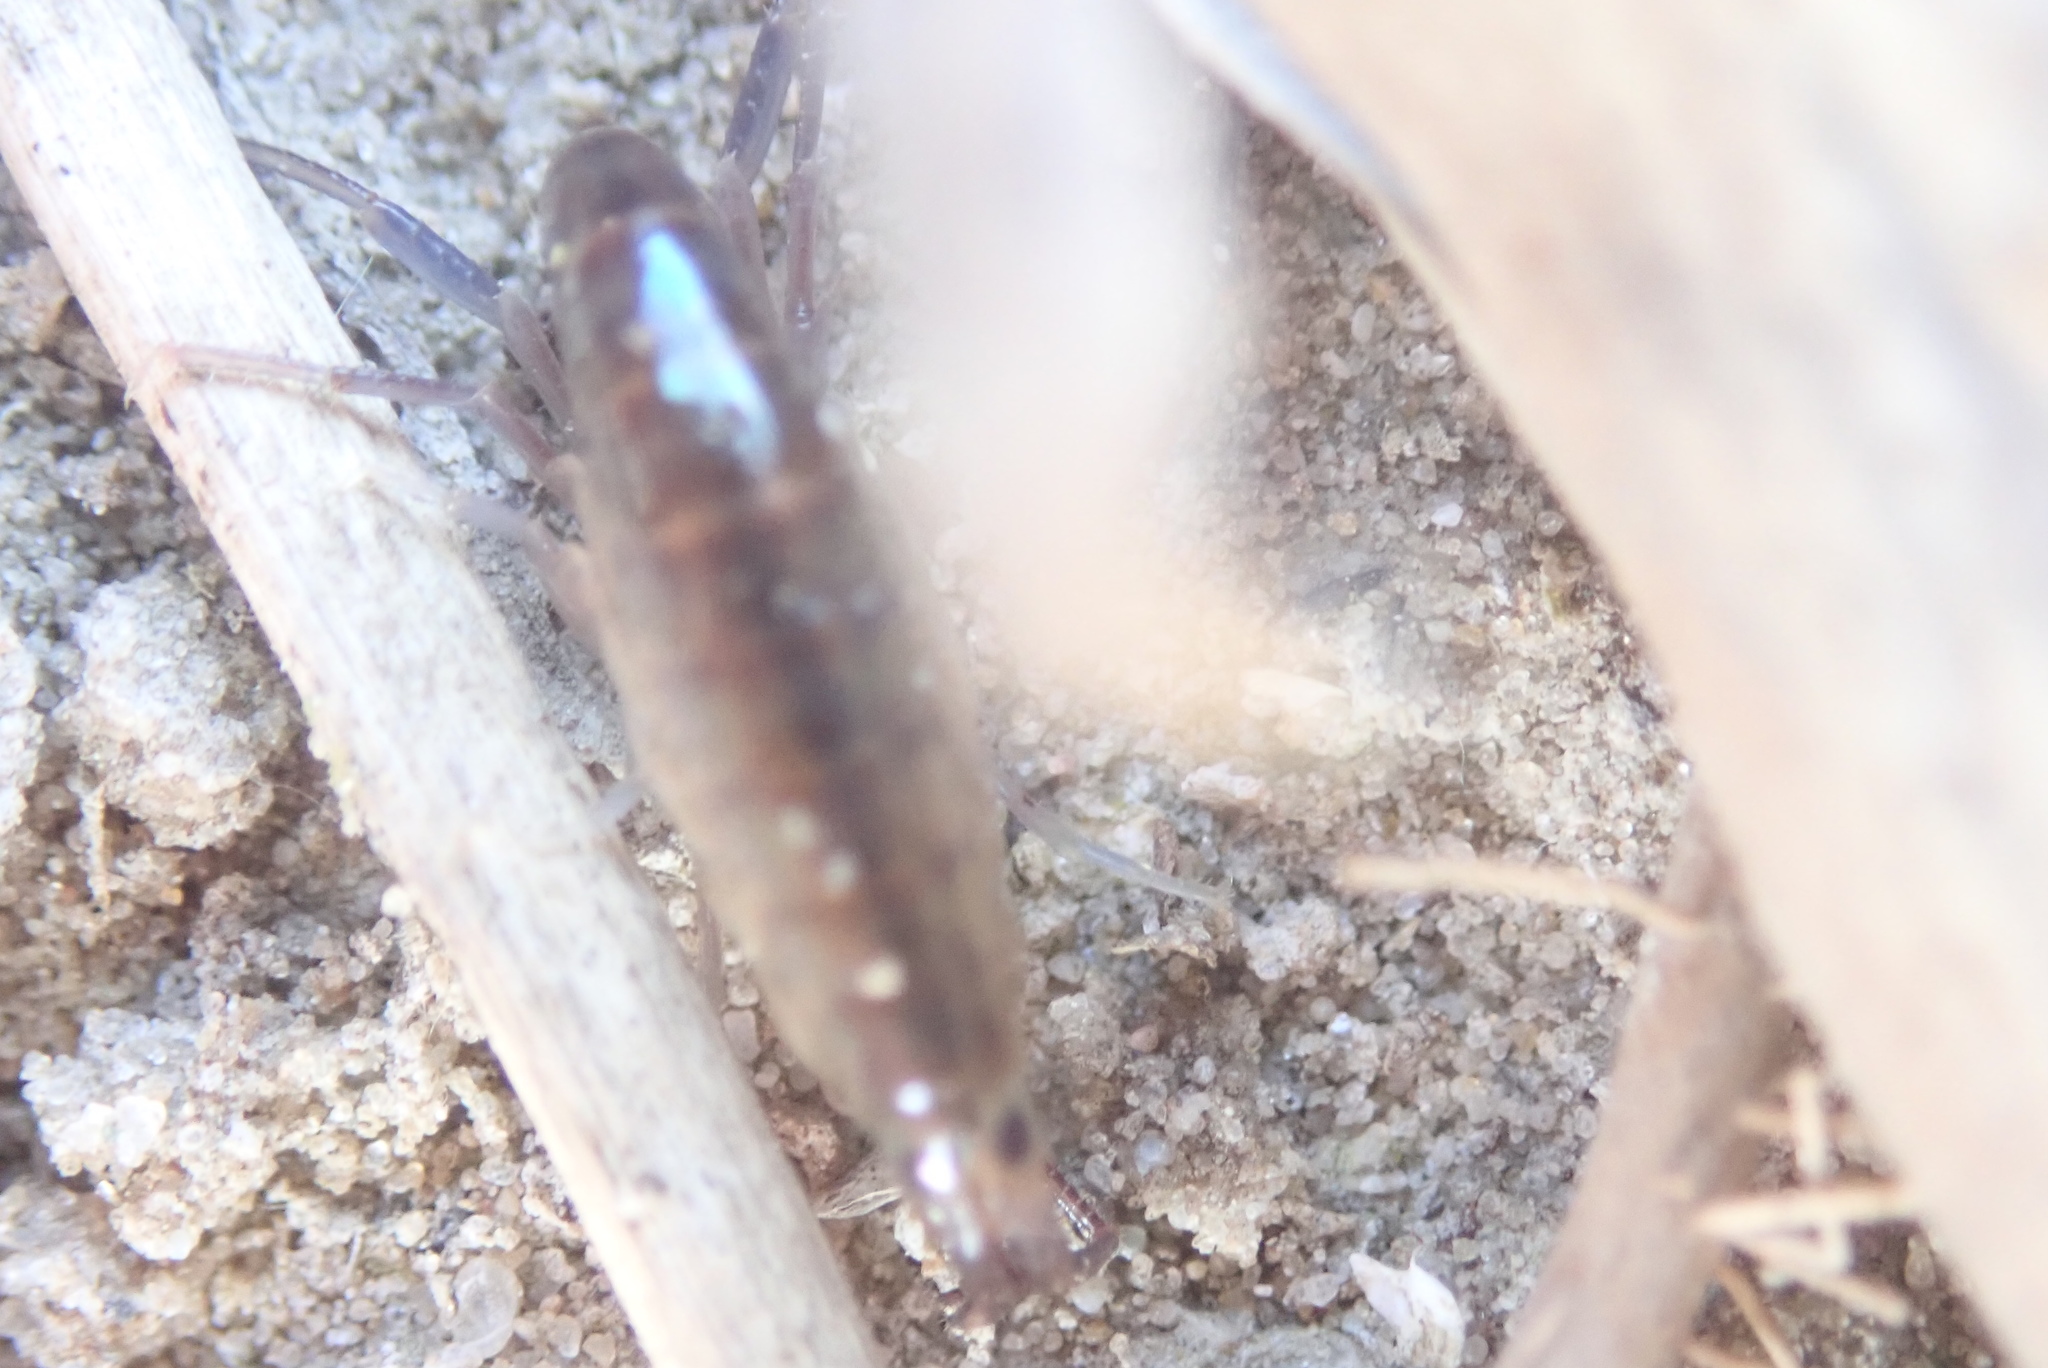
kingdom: Animalia
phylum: Arthropoda
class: Malacostraca
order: Amphipoda
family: Talitridae
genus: Talitrus
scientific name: Talitrus saltator
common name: Sand hopper
